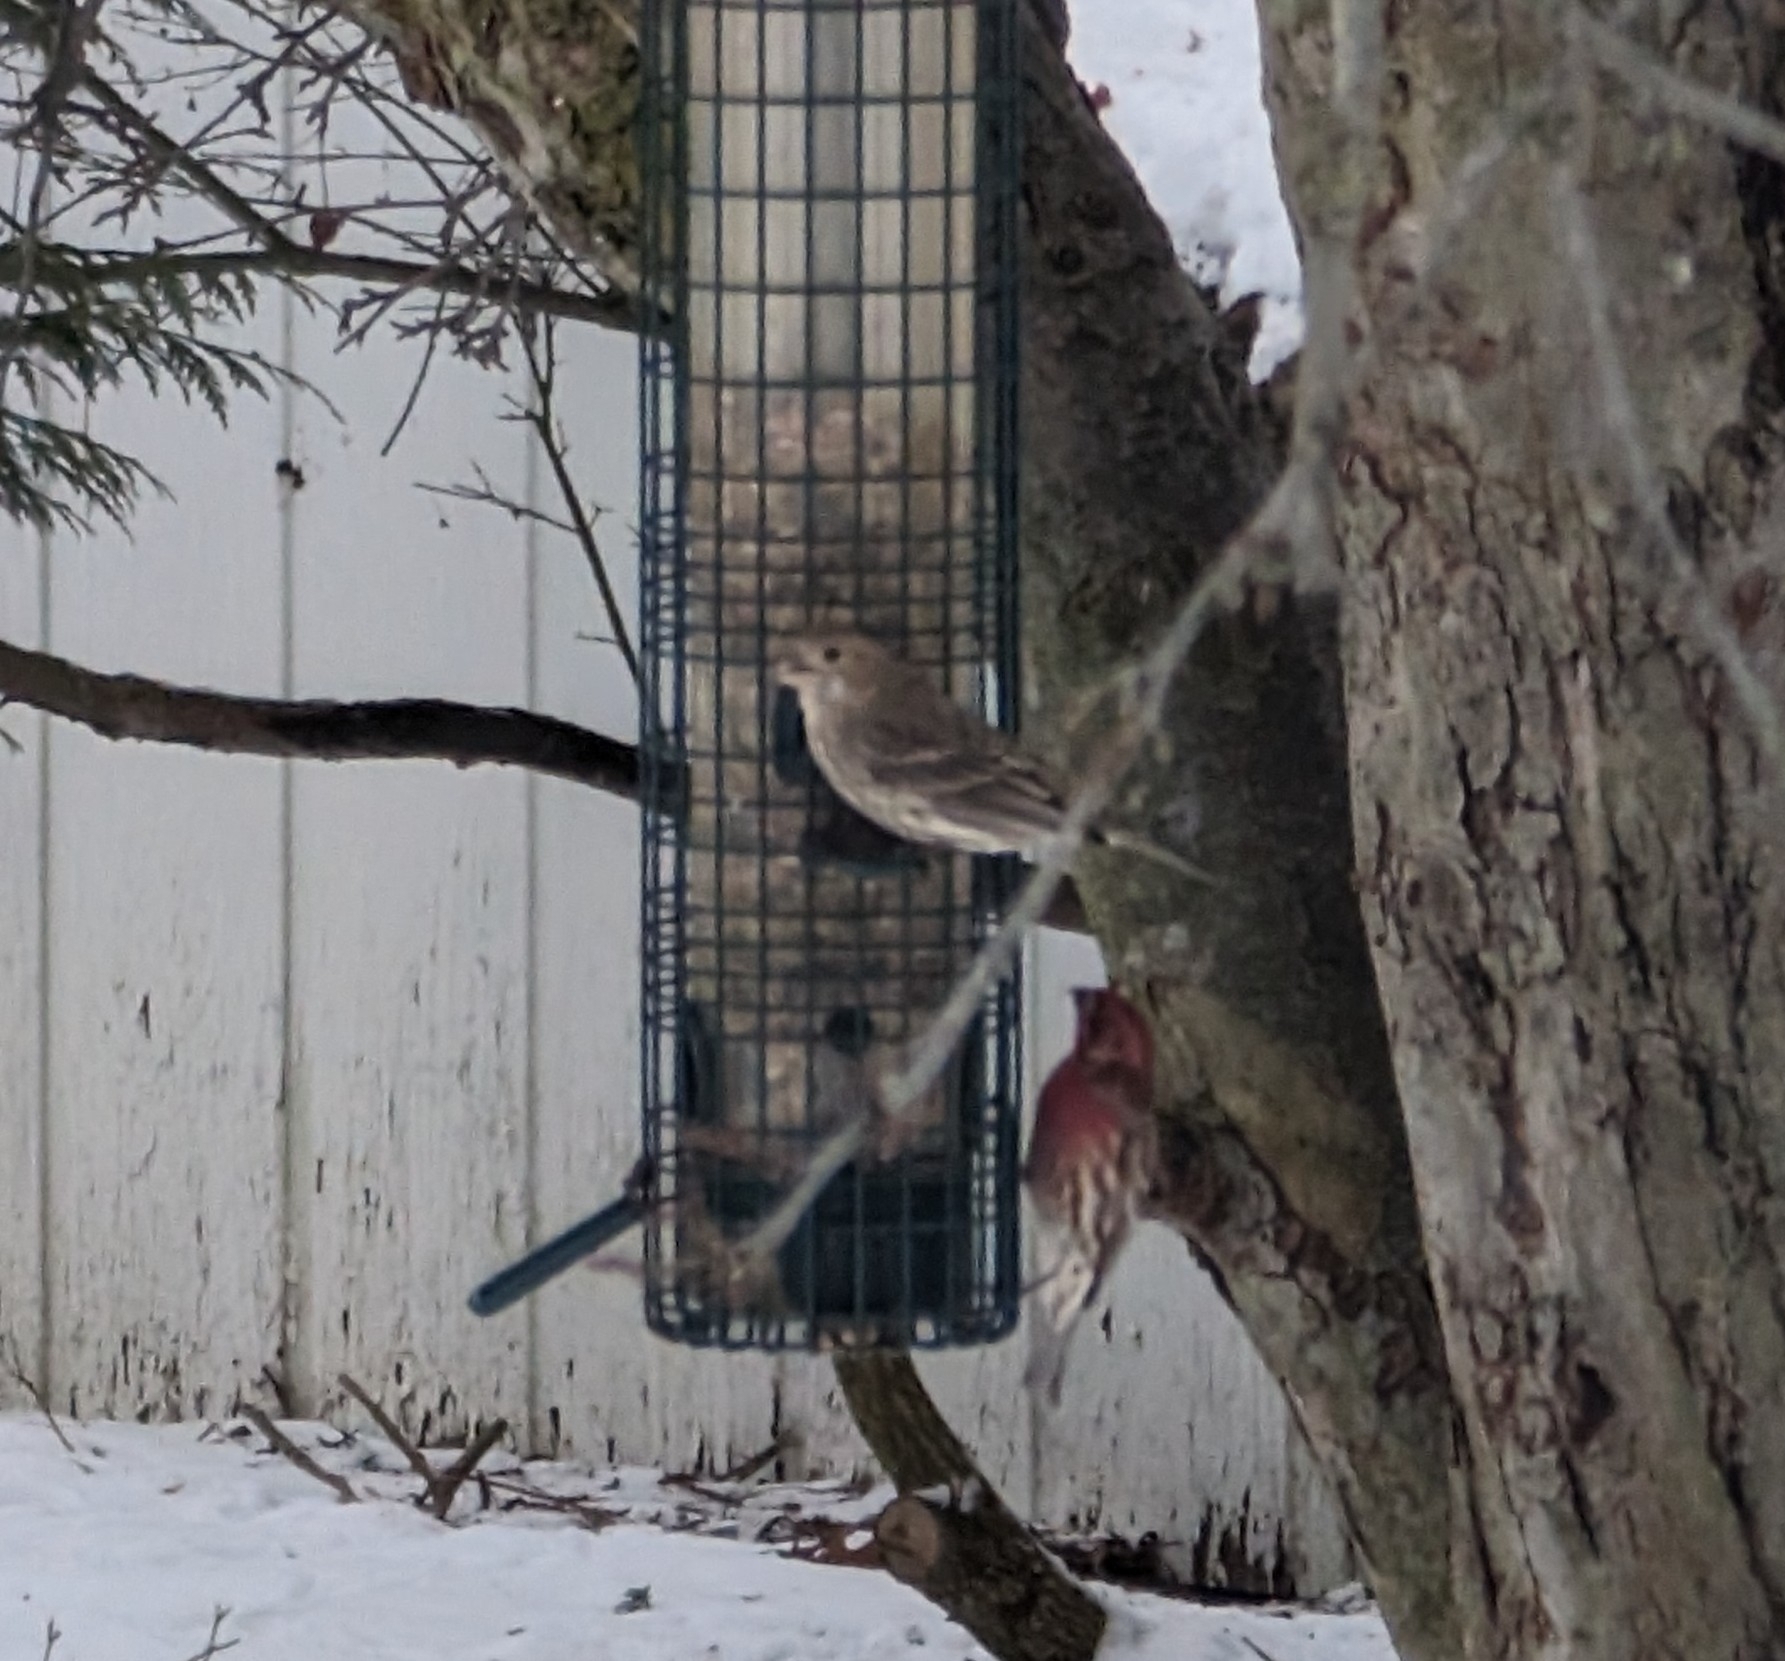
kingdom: Animalia
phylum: Chordata
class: Aves
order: Passeriformes
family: Fringillidae
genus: Haemorhous
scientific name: Haemorhous mexicanus
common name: House finch
